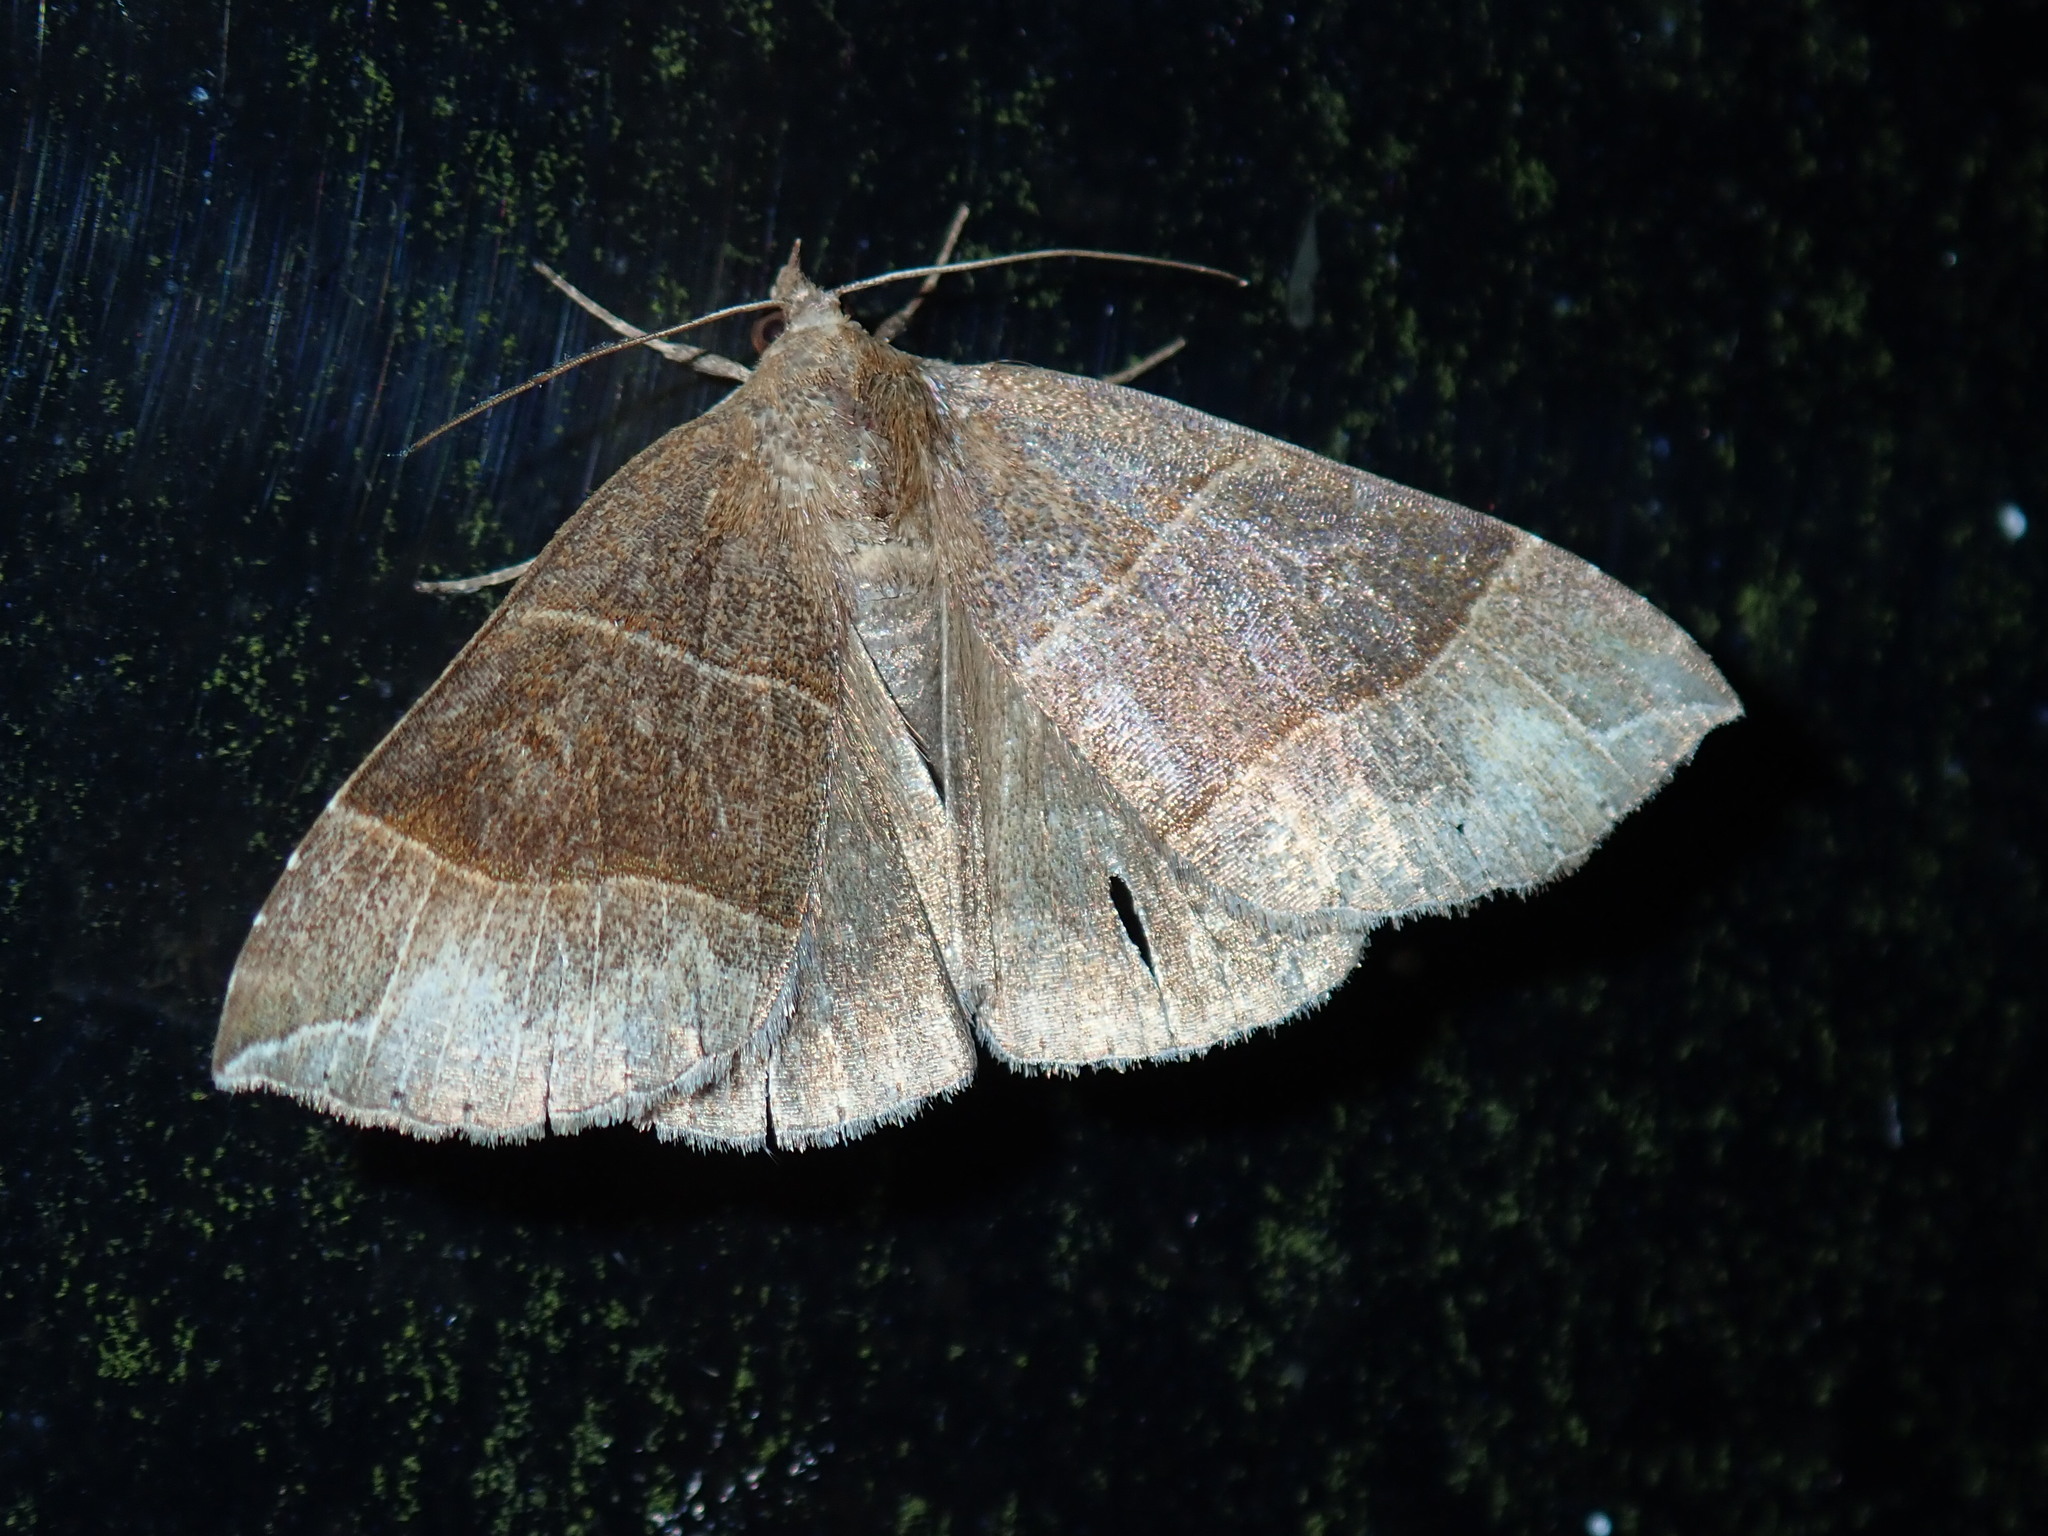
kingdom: Animalia
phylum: Arthropoda
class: Insecta
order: Lepidoptera
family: Erebidae
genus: Parallelia
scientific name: Parallelia bistriaris
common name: Maple looper moth
